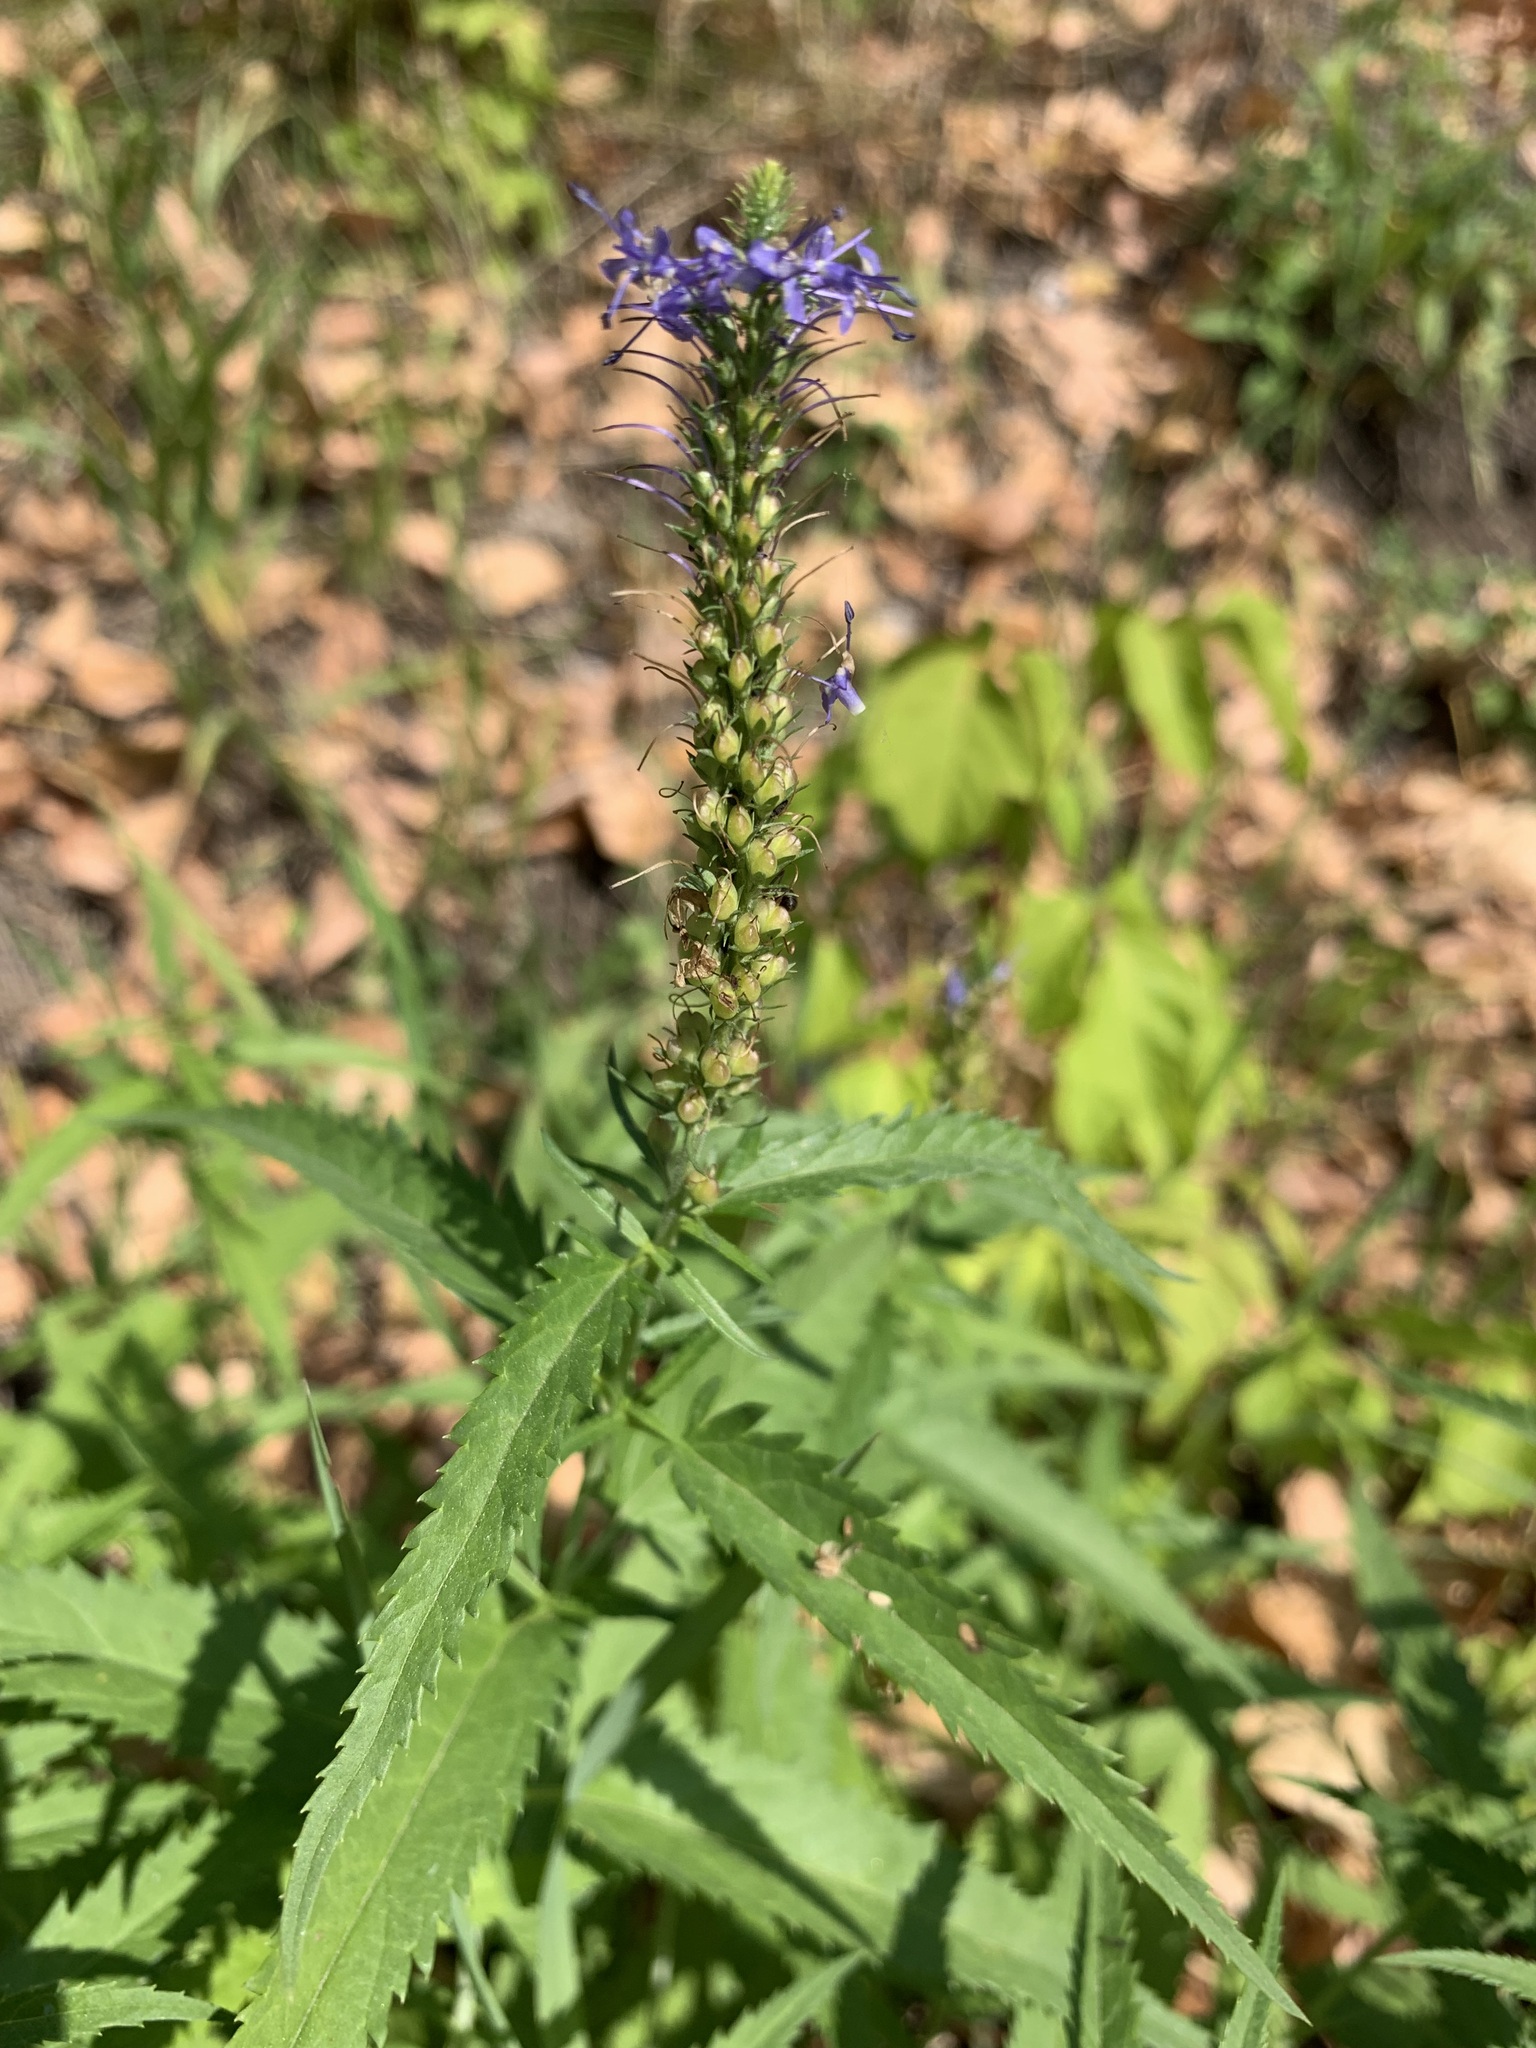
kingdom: Plantae
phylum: Tracheophyta
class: Magnoliopsida
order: Lamiales
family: Plantaginaceae
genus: Veronica
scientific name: Veronica longifolia
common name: Garden speedwell
